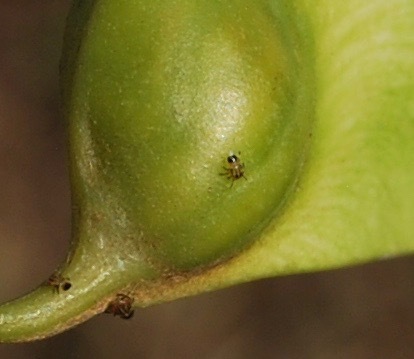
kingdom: Animalia
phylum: Arthropoda
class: Insecta
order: Hemiptera
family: Psyllidae
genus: Platycorypha
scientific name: Platycorypha nigrivirga
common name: Tipu psyllid
